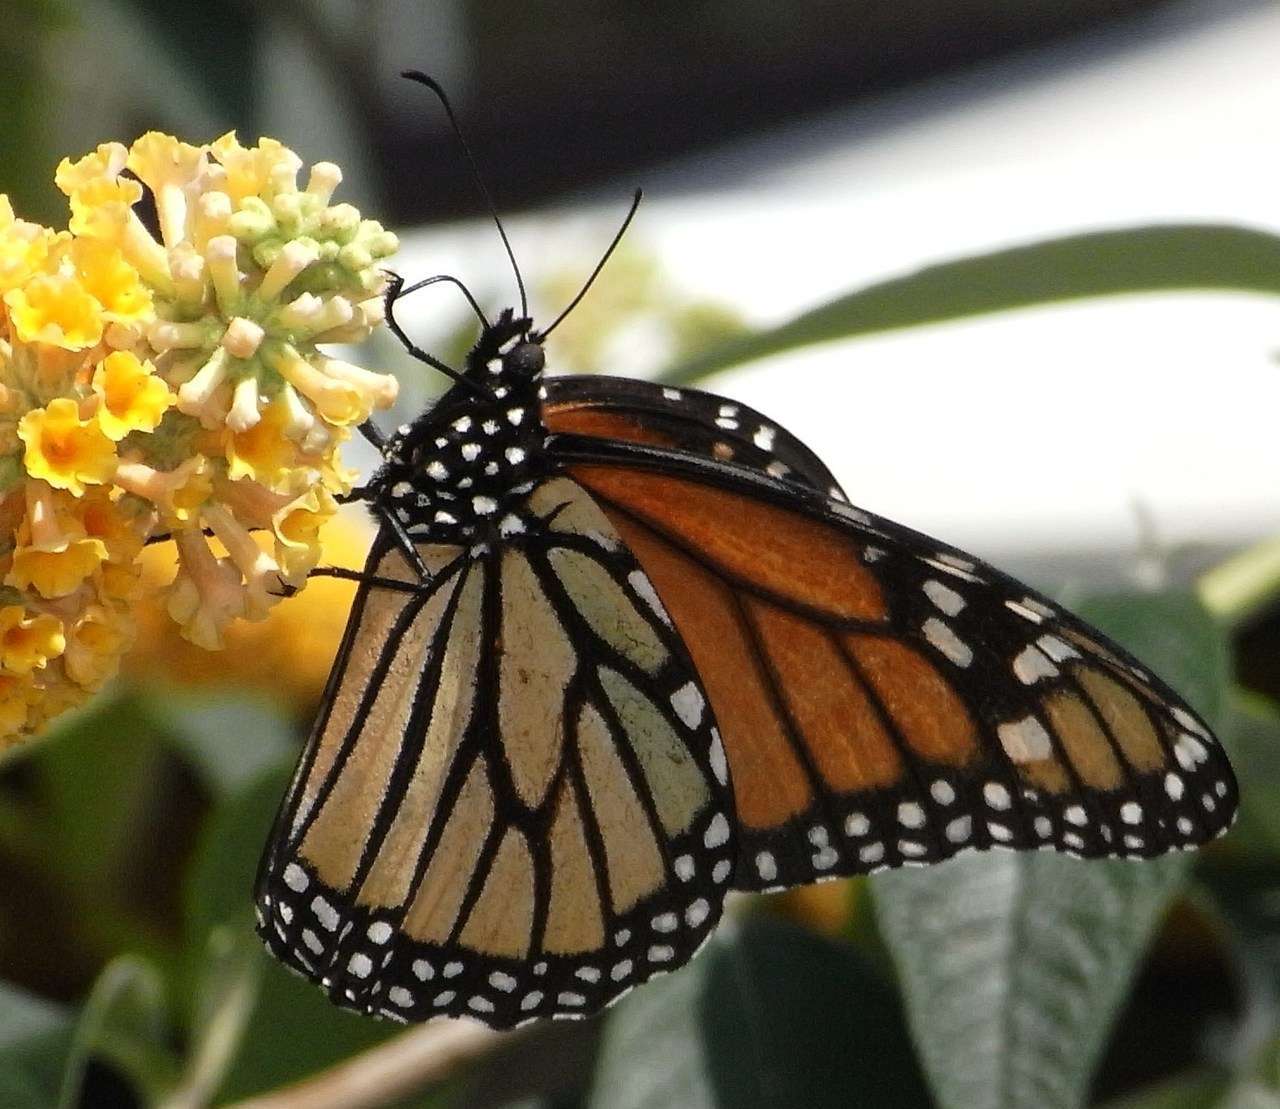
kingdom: Animalia
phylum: Arthropoda
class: Insecta
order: Lepidoptera
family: Nymphalidae
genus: Danaus
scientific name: Danaus plexippus
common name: Monarch
